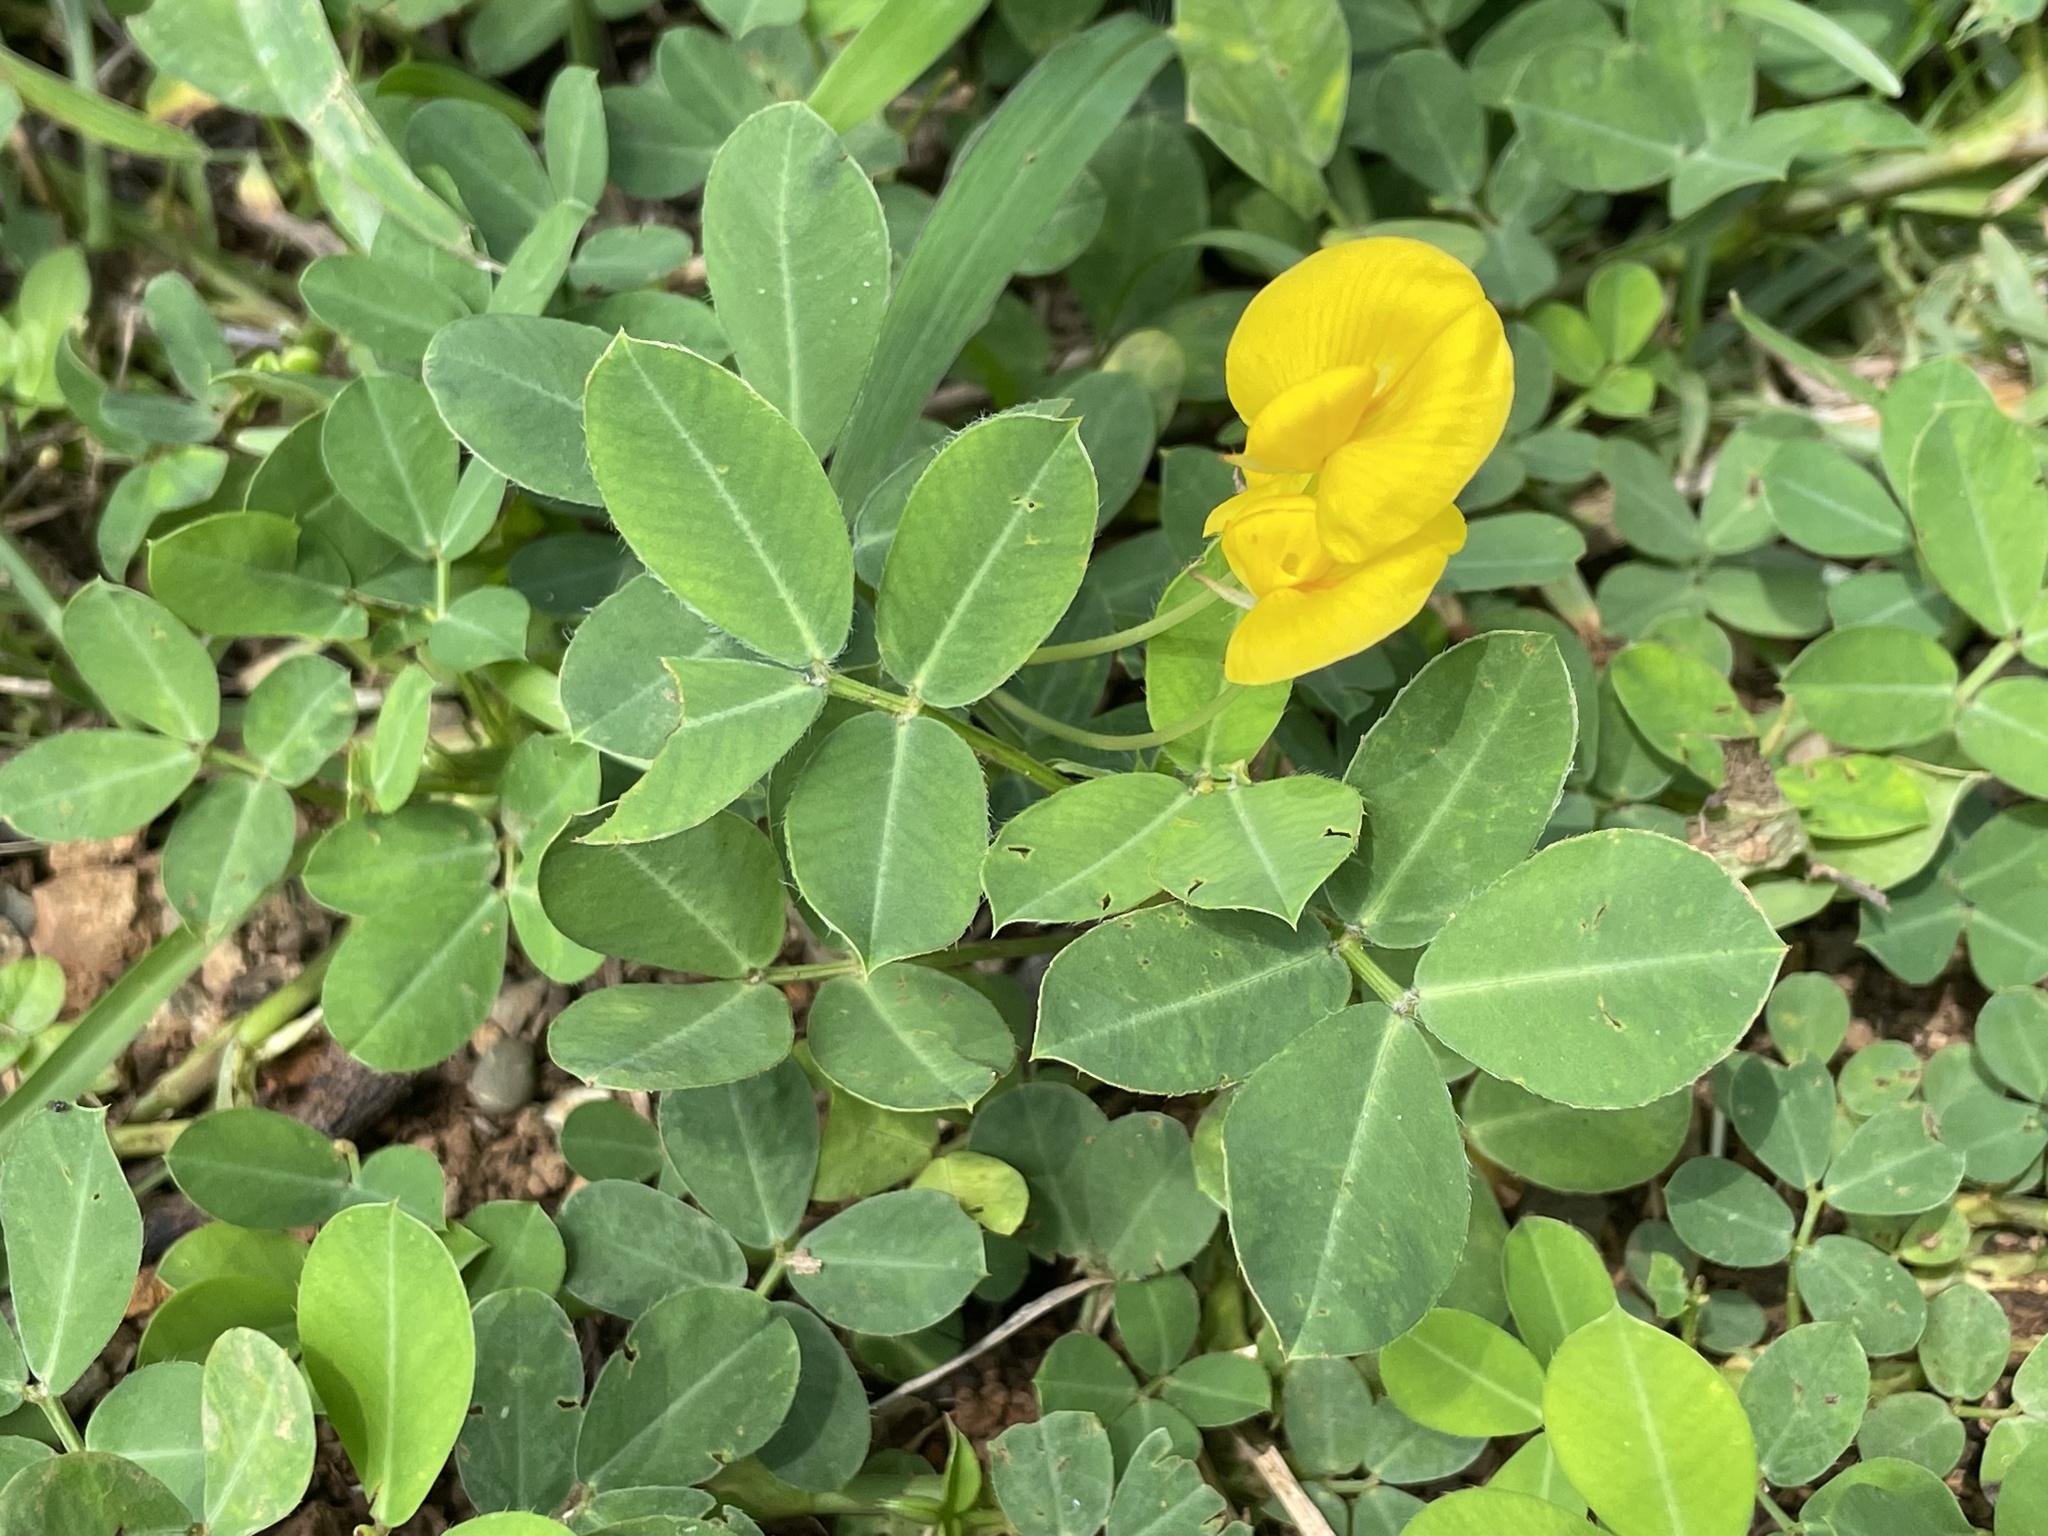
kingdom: Plantae
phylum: Tracheophyta
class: Magnoliopsida
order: Fabales
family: Fabaceae
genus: Arachis
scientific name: Arachis pintoi
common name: Pinto peanut
